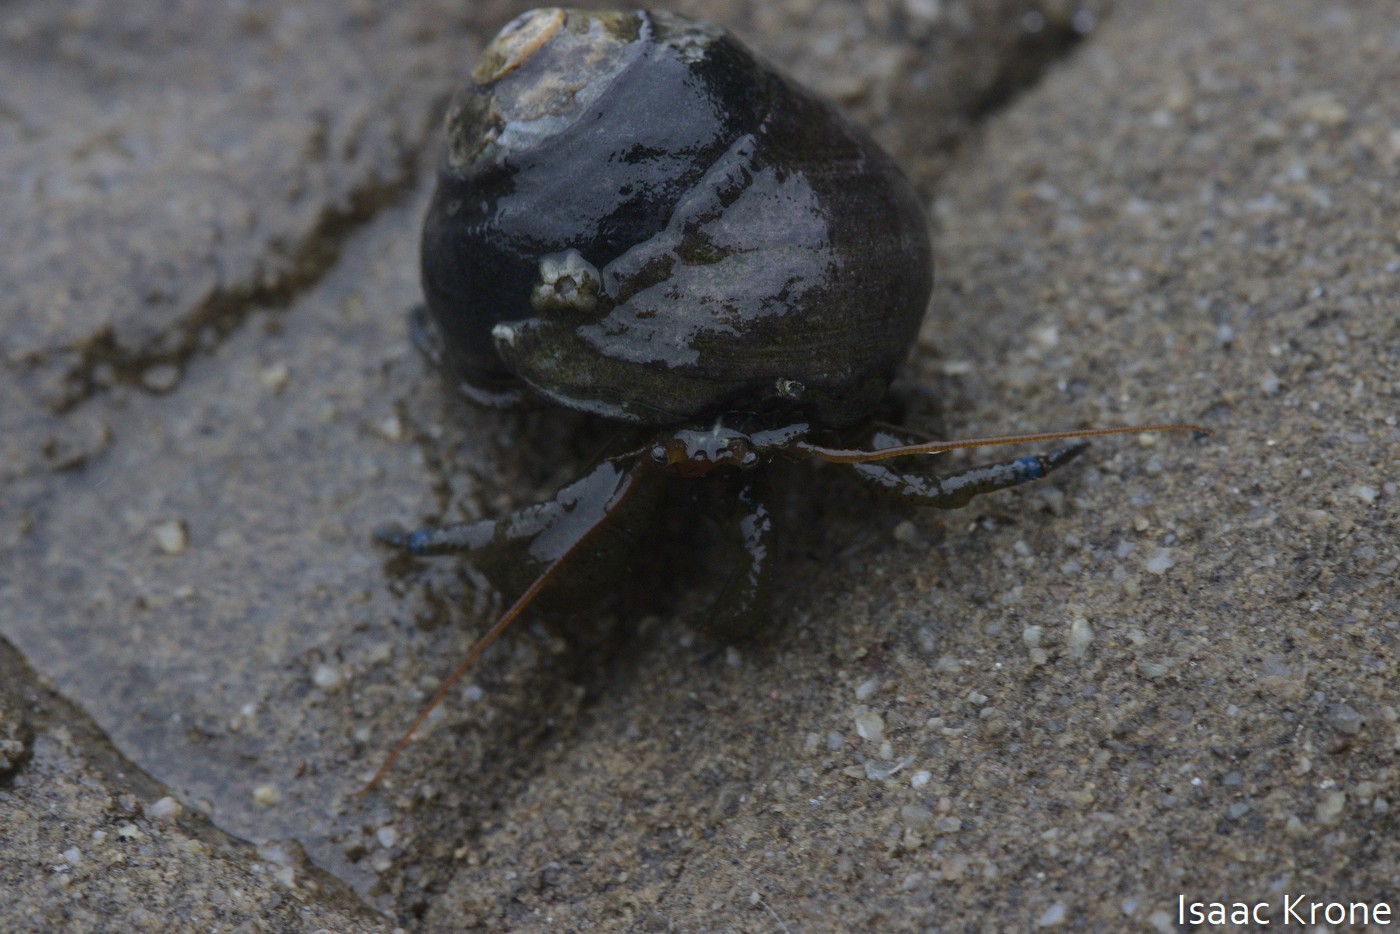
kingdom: Animalia
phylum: Arthropoda
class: Malacostraca
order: Decapoda
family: Paguridae
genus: Pagurus
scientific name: Pagurus samuelis
